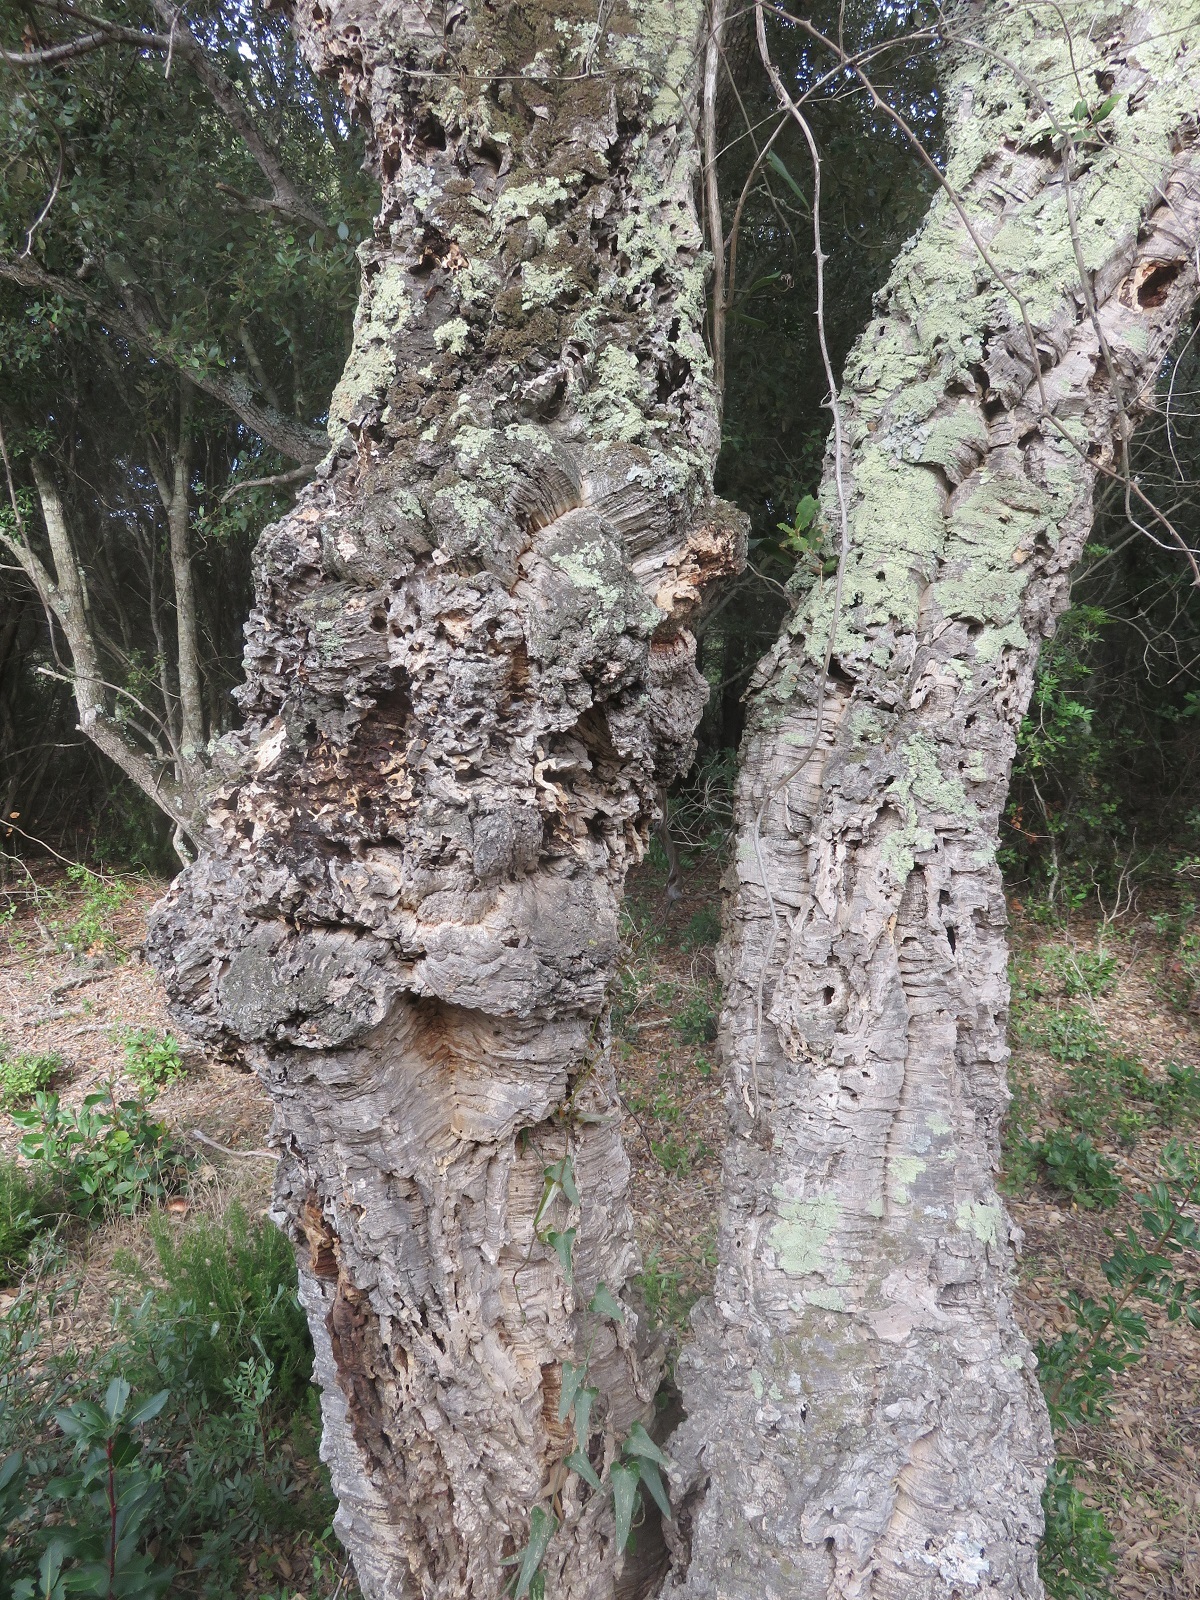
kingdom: Plantae
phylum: Tracheophyta
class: Magnoliopsida
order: Fagales
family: Fagaceae
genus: Quercus
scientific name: Quercus suber
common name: Cork oak
